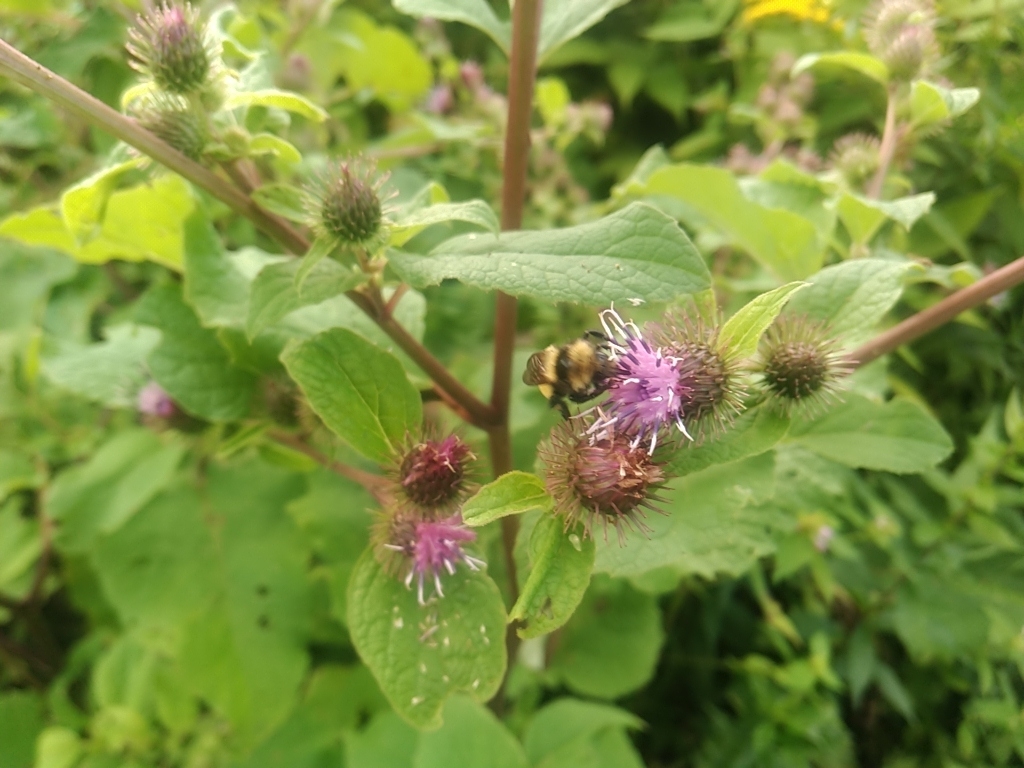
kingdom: Animalia
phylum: Arthropoda
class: Insecta
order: Hymenoptera
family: Apidae
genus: Bombus
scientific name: Bombus borealis
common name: Northern amber bumble bee
